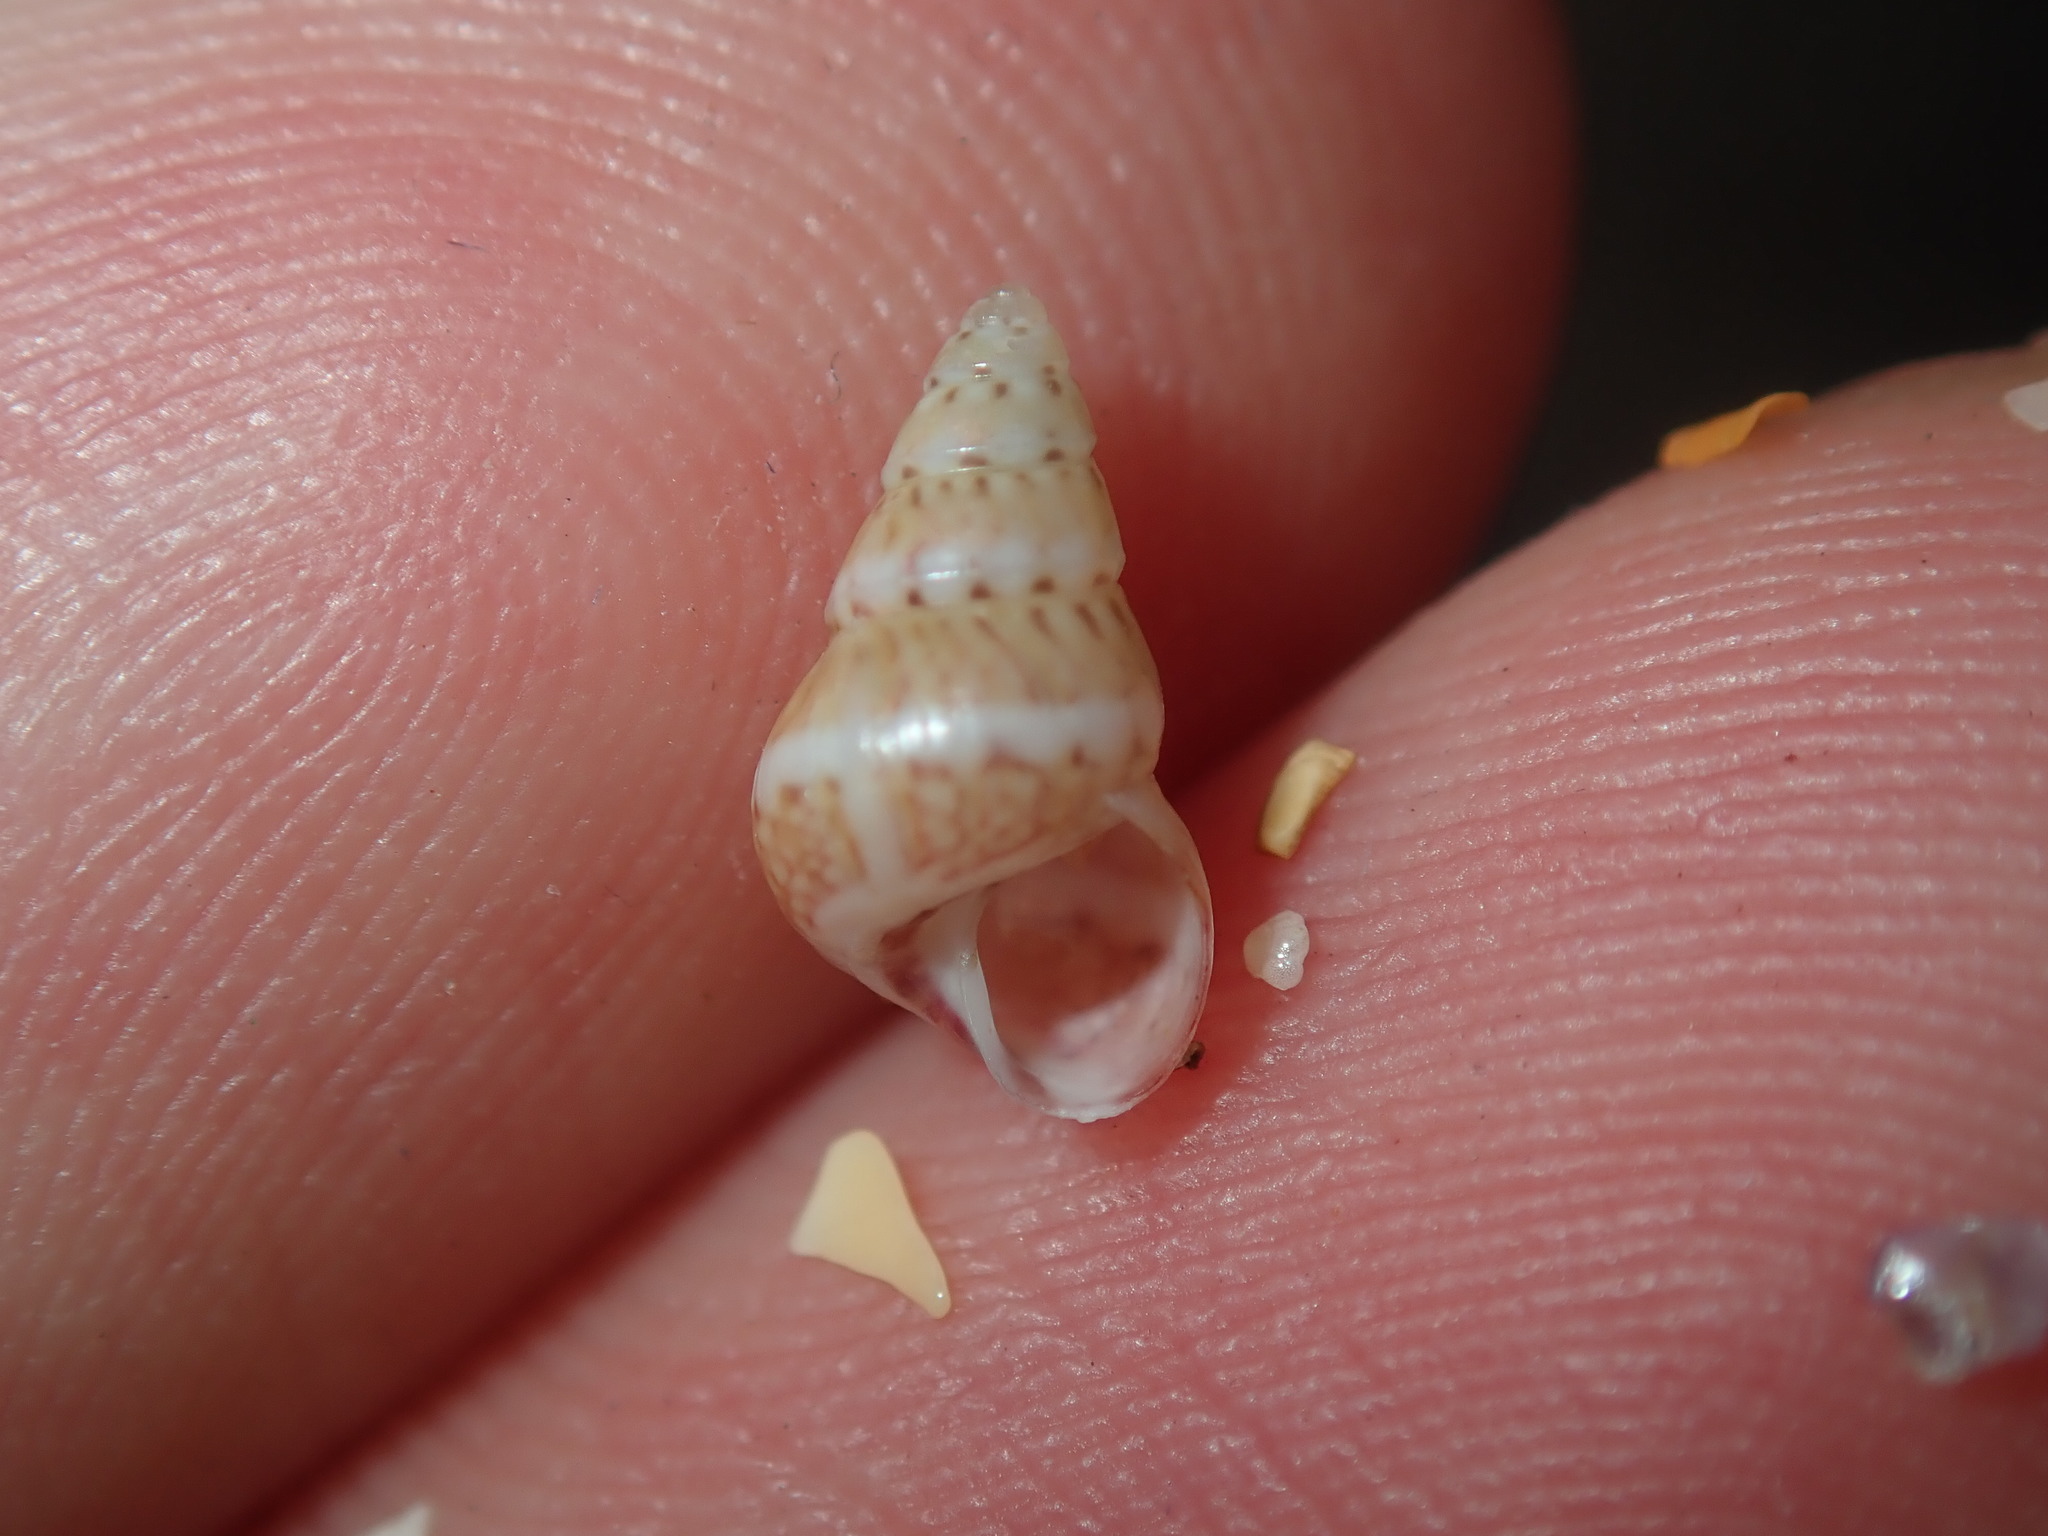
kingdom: Animalia
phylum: Mollusca
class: Gastropoda
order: Trochida
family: Trochidae
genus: Leiopyrga
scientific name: Leiopyrga lineolaris
